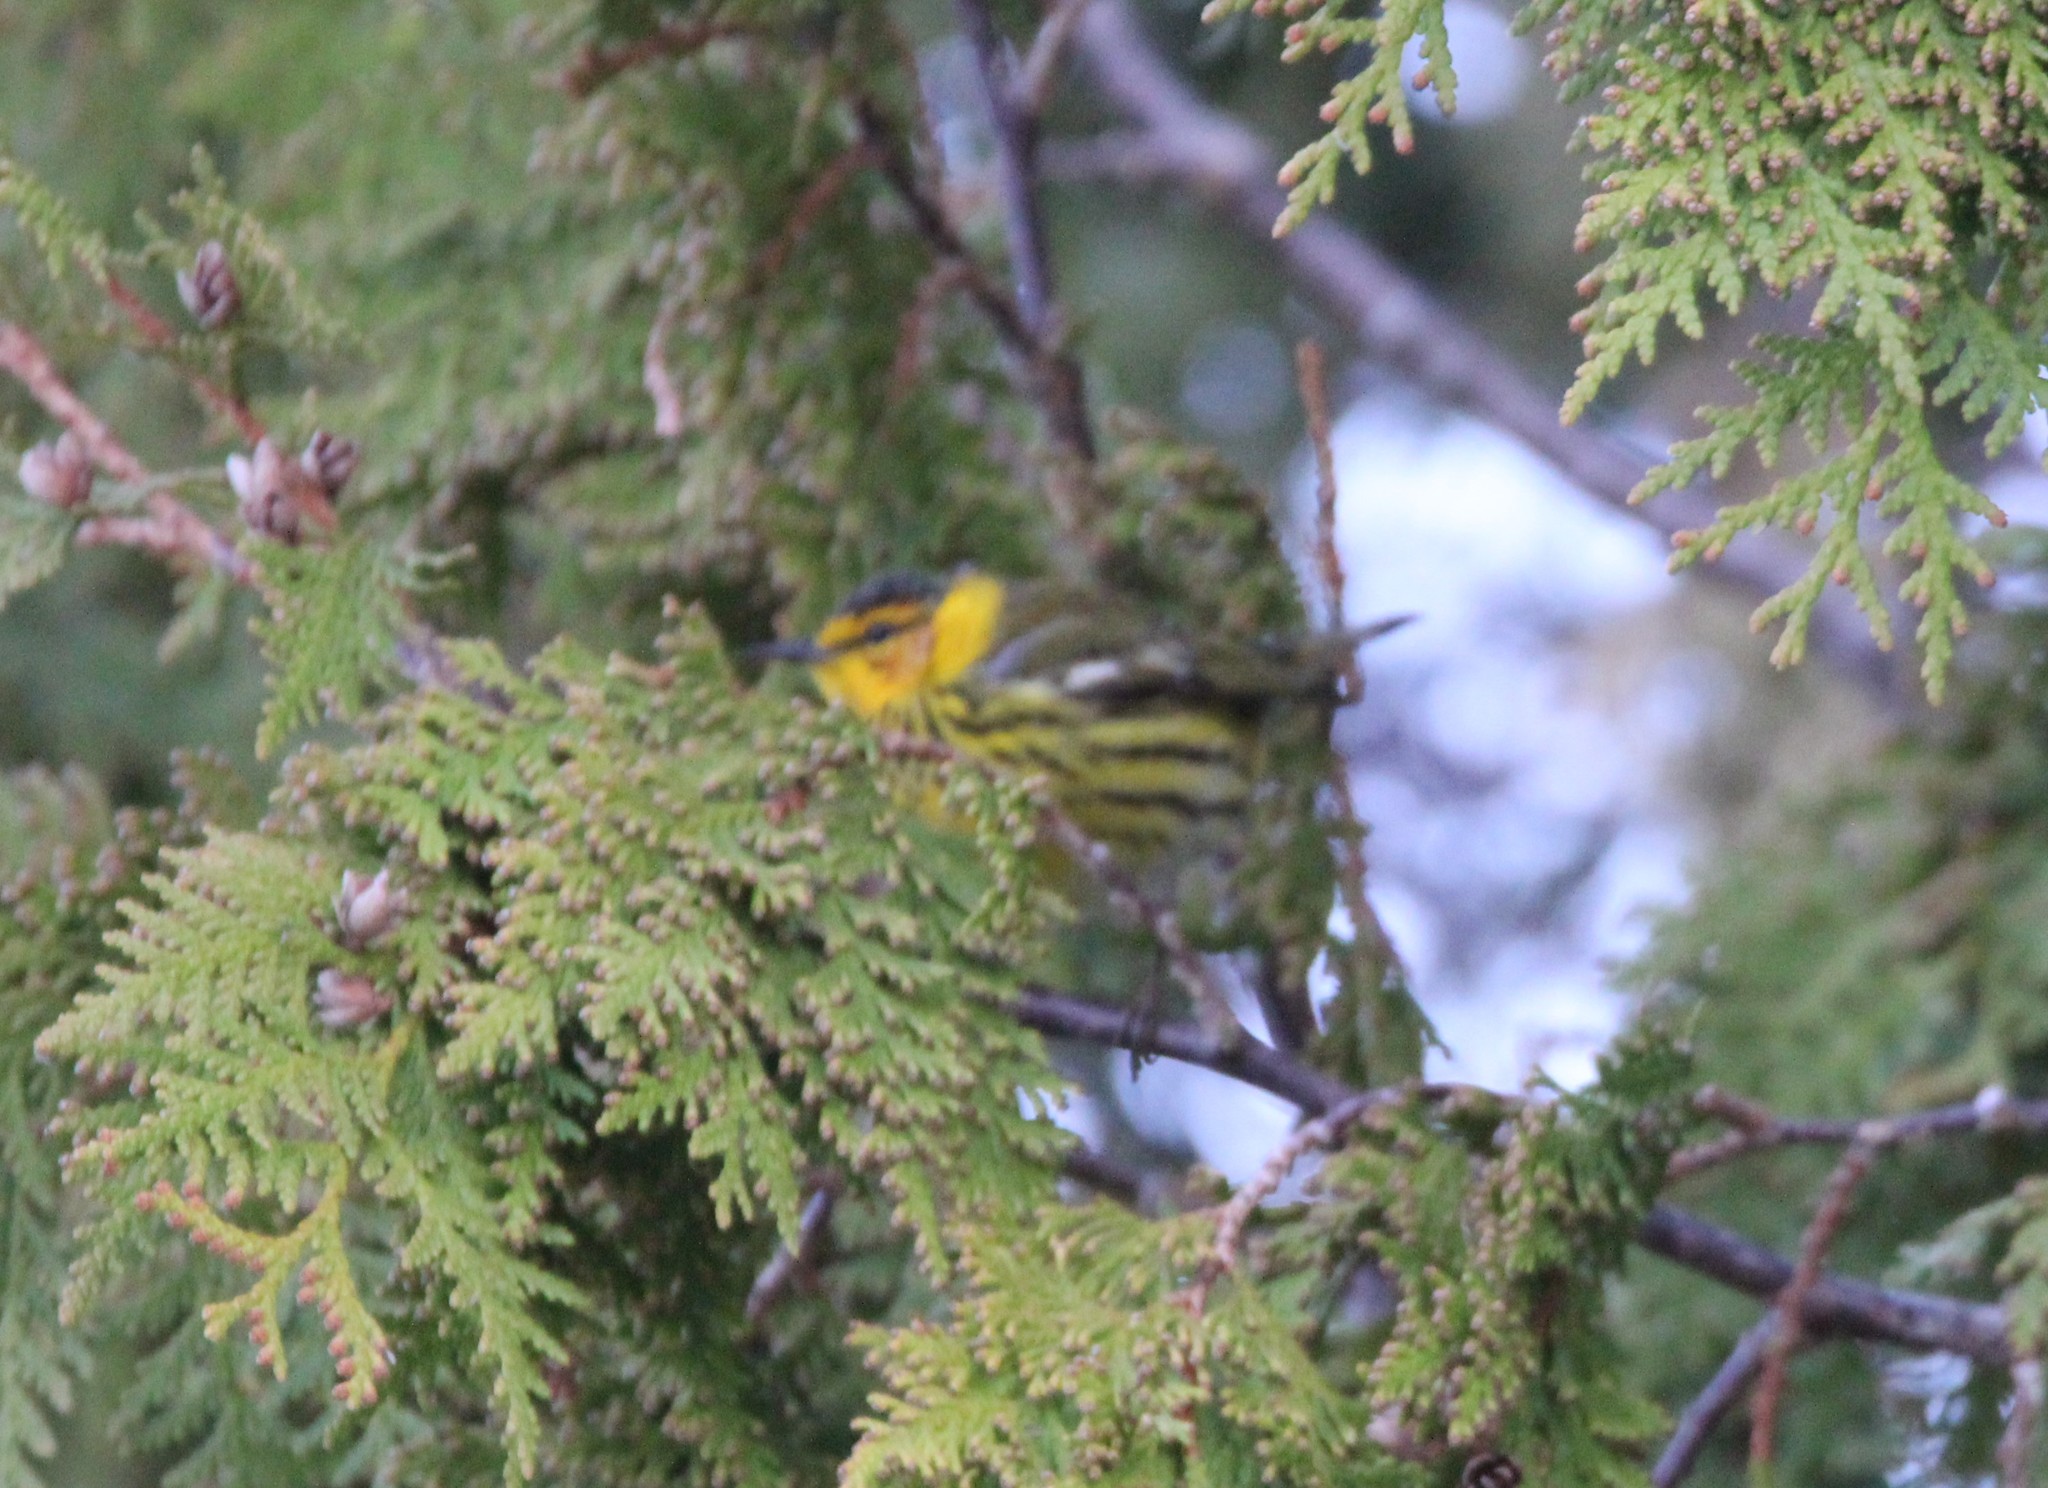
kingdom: Animalia
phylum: Chordata
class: Aves
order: Passeriformes
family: Parulidae
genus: Setophaga
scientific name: Setophaga tigrina
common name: Cape may warbler
